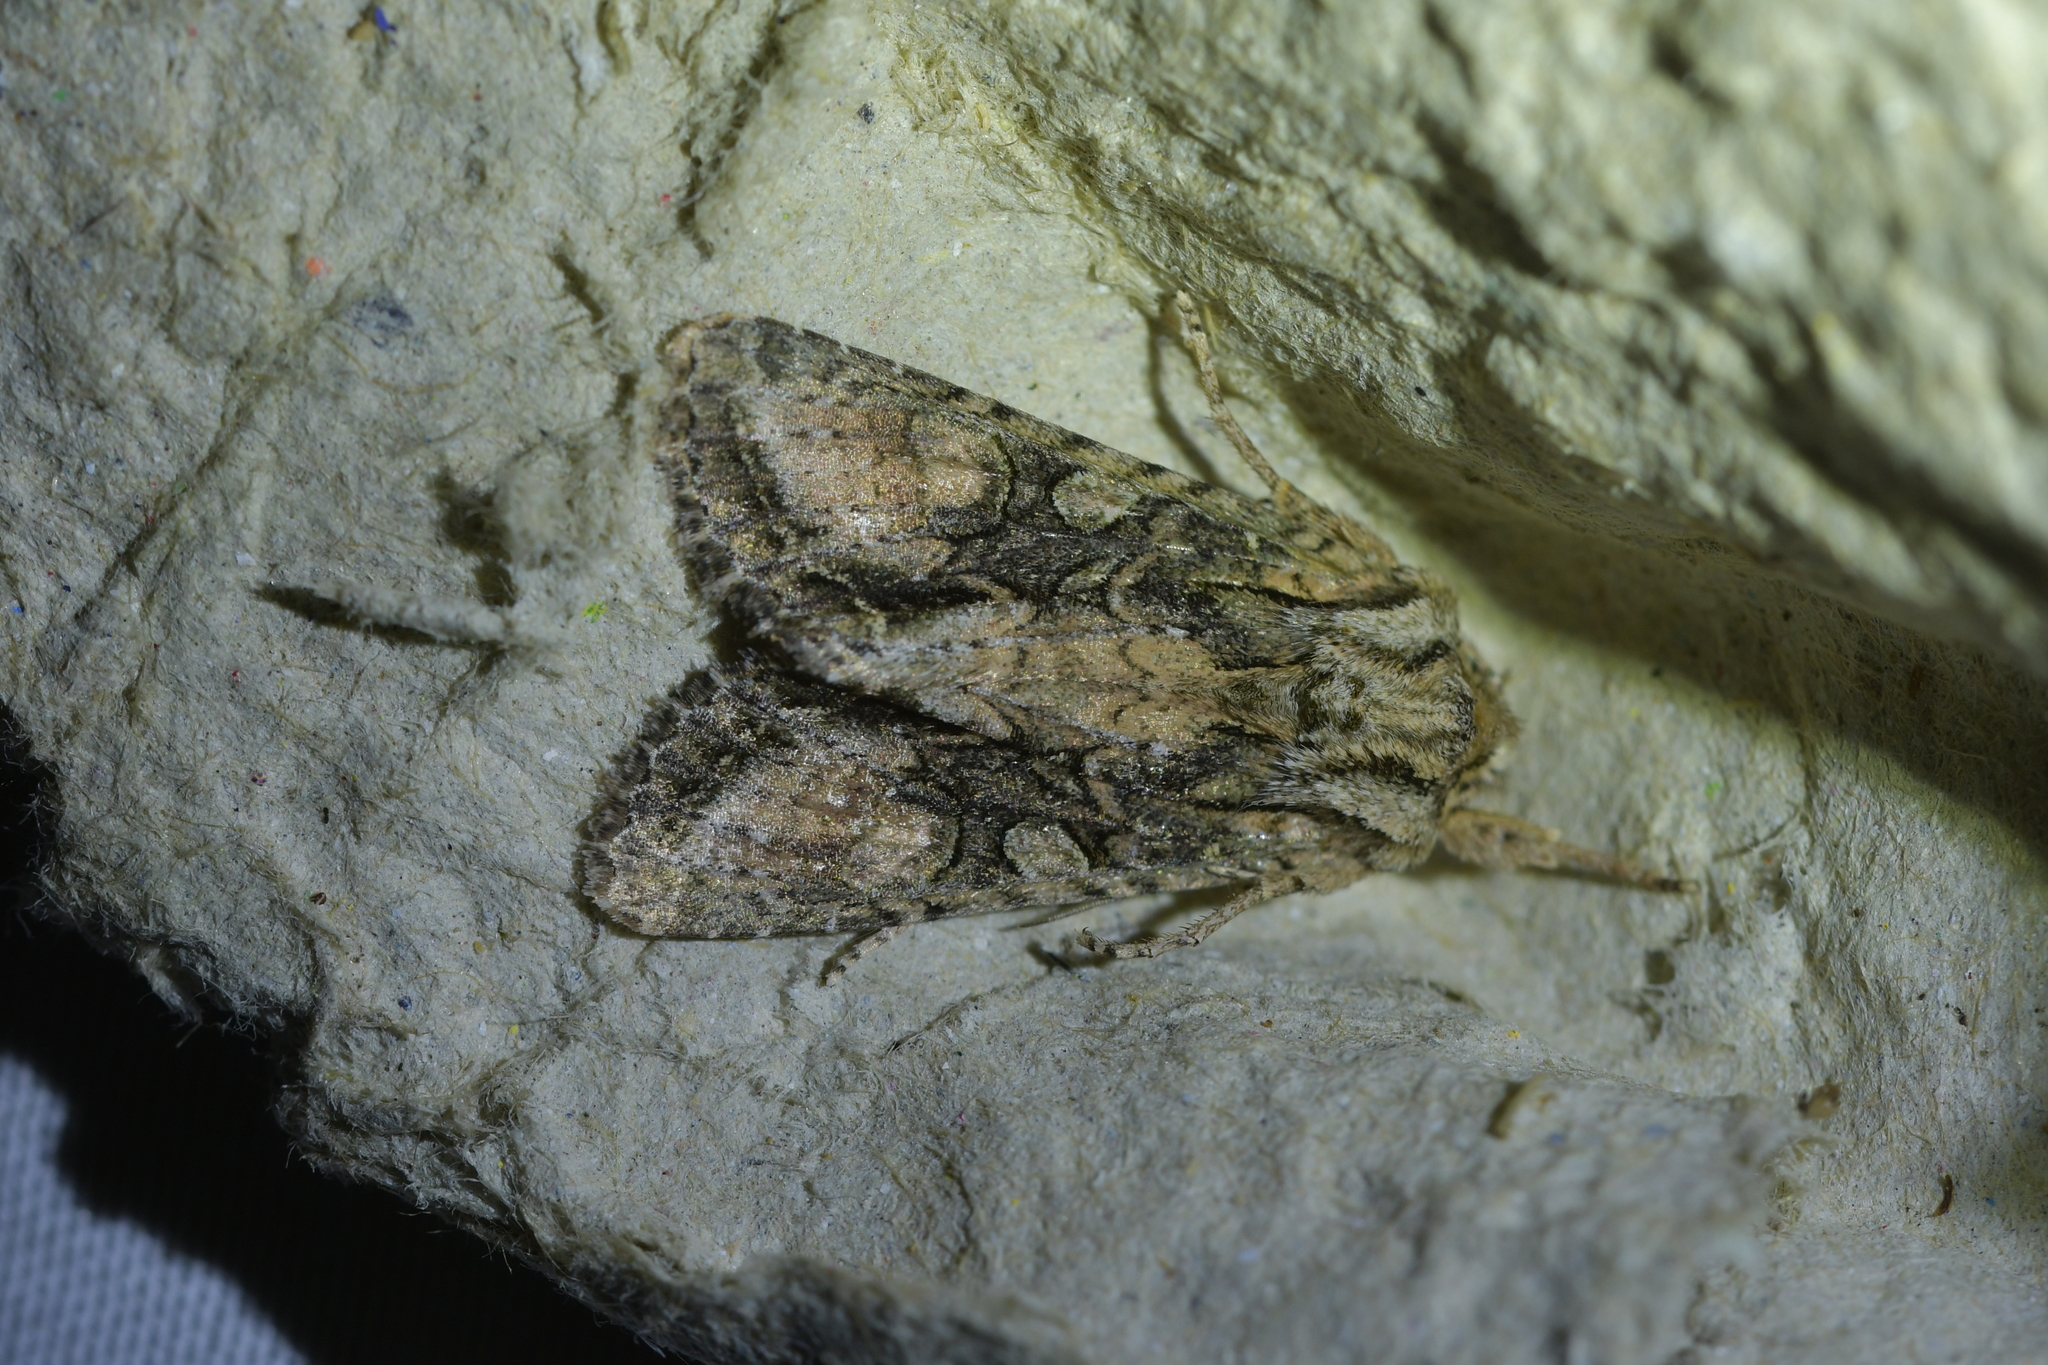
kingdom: Animalia
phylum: Arthropoda
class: Insecta
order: Lepidoptera
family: Noctuidae
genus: Ichneutica
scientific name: Ichneutica mutans
